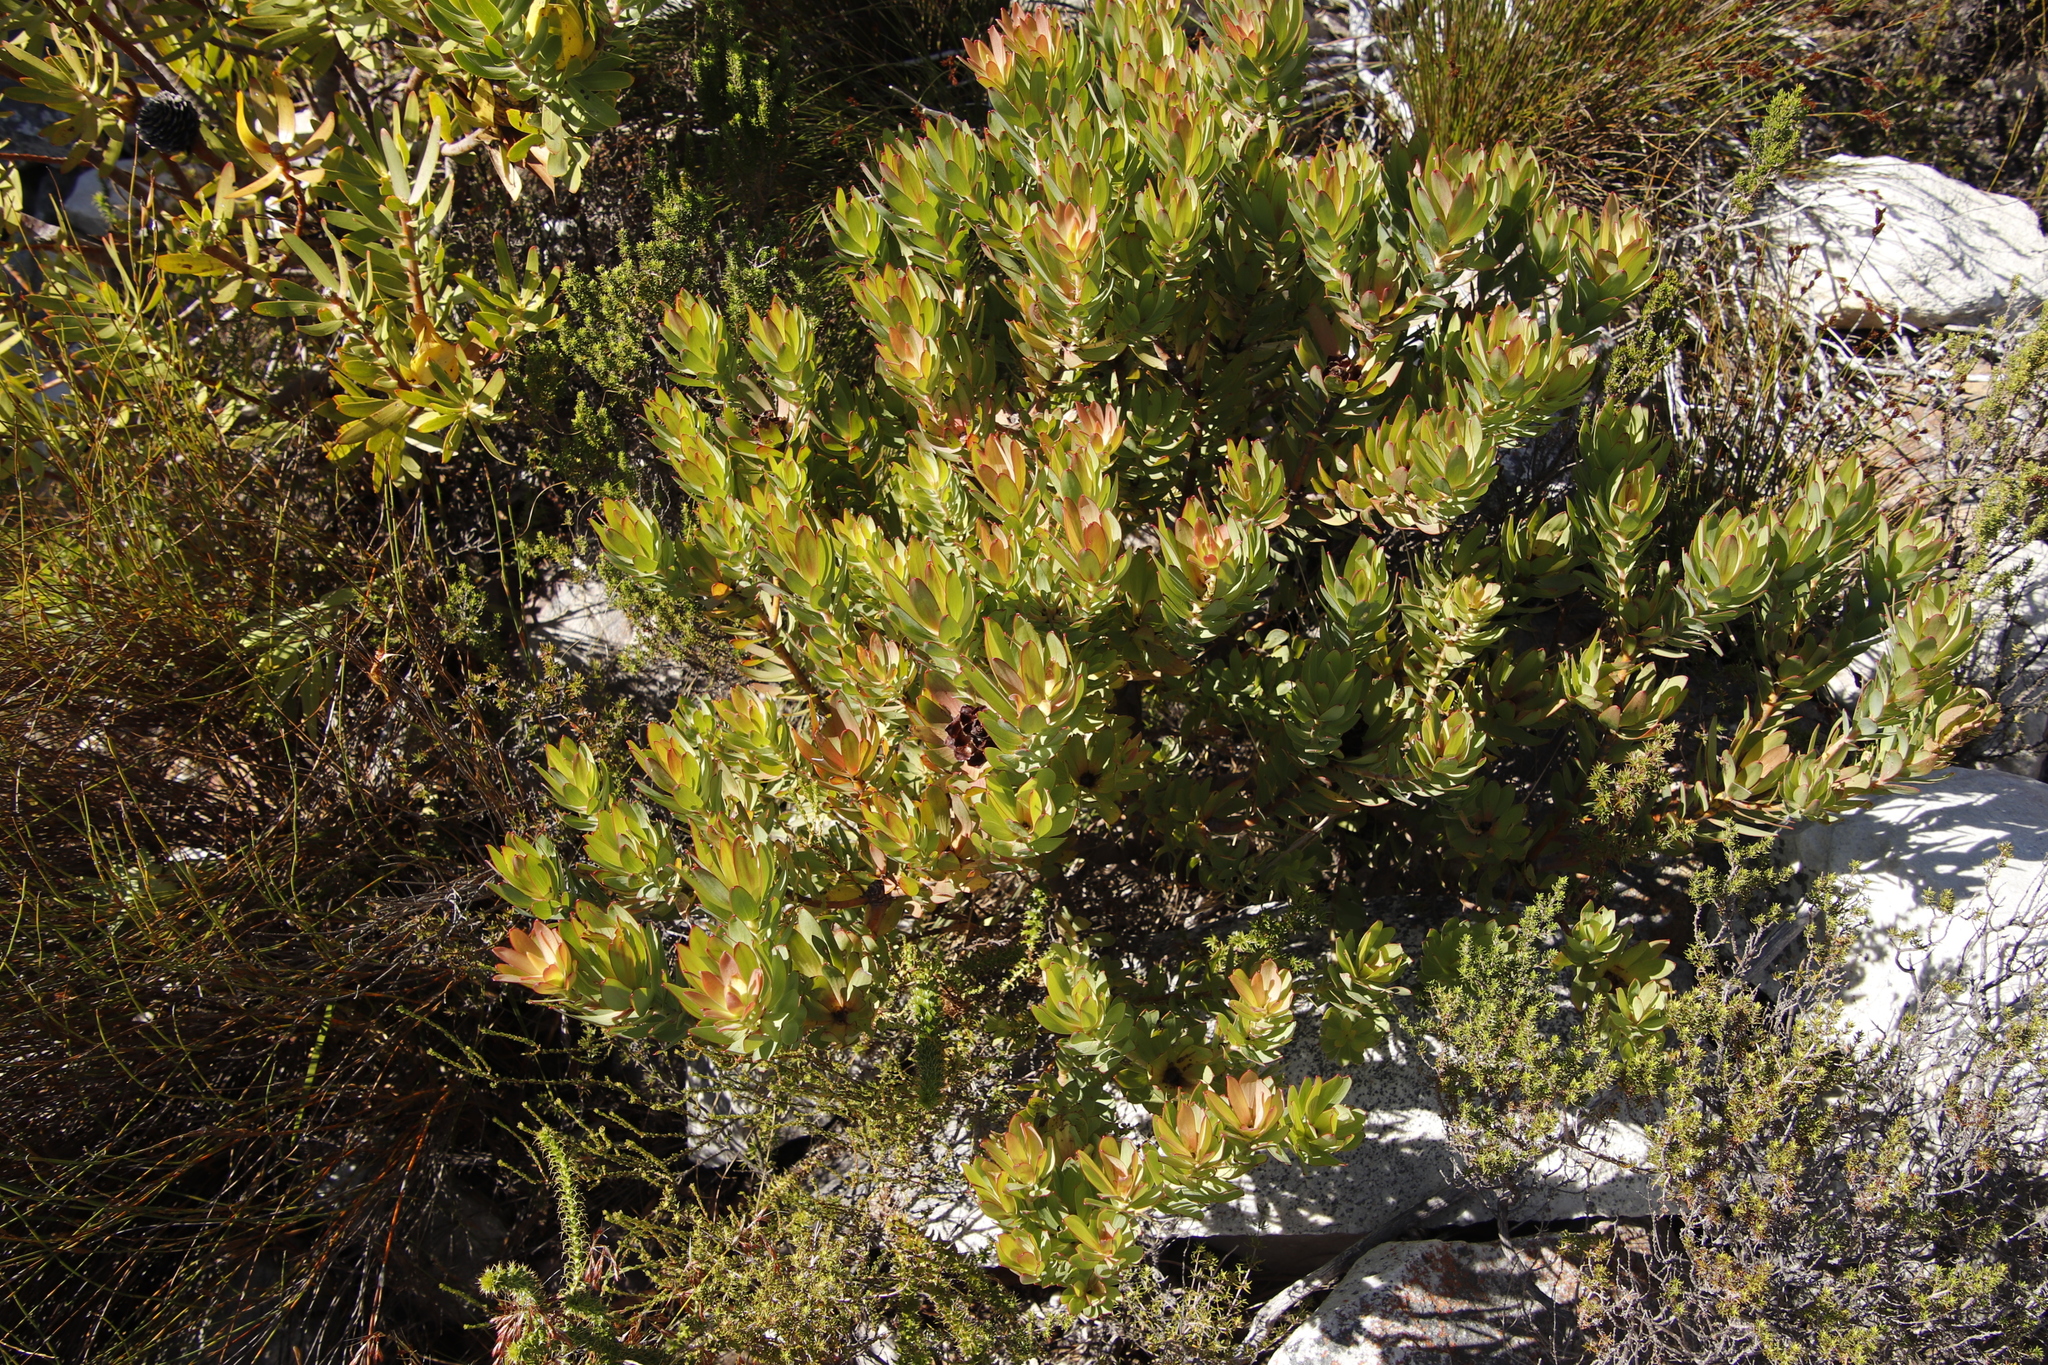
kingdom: Plantae
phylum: Tracheophyta
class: Magnoliopsida
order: Proteales
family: Proteaceae
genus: Leucadendron
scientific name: Leucadendron sessile
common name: Western sunbush
